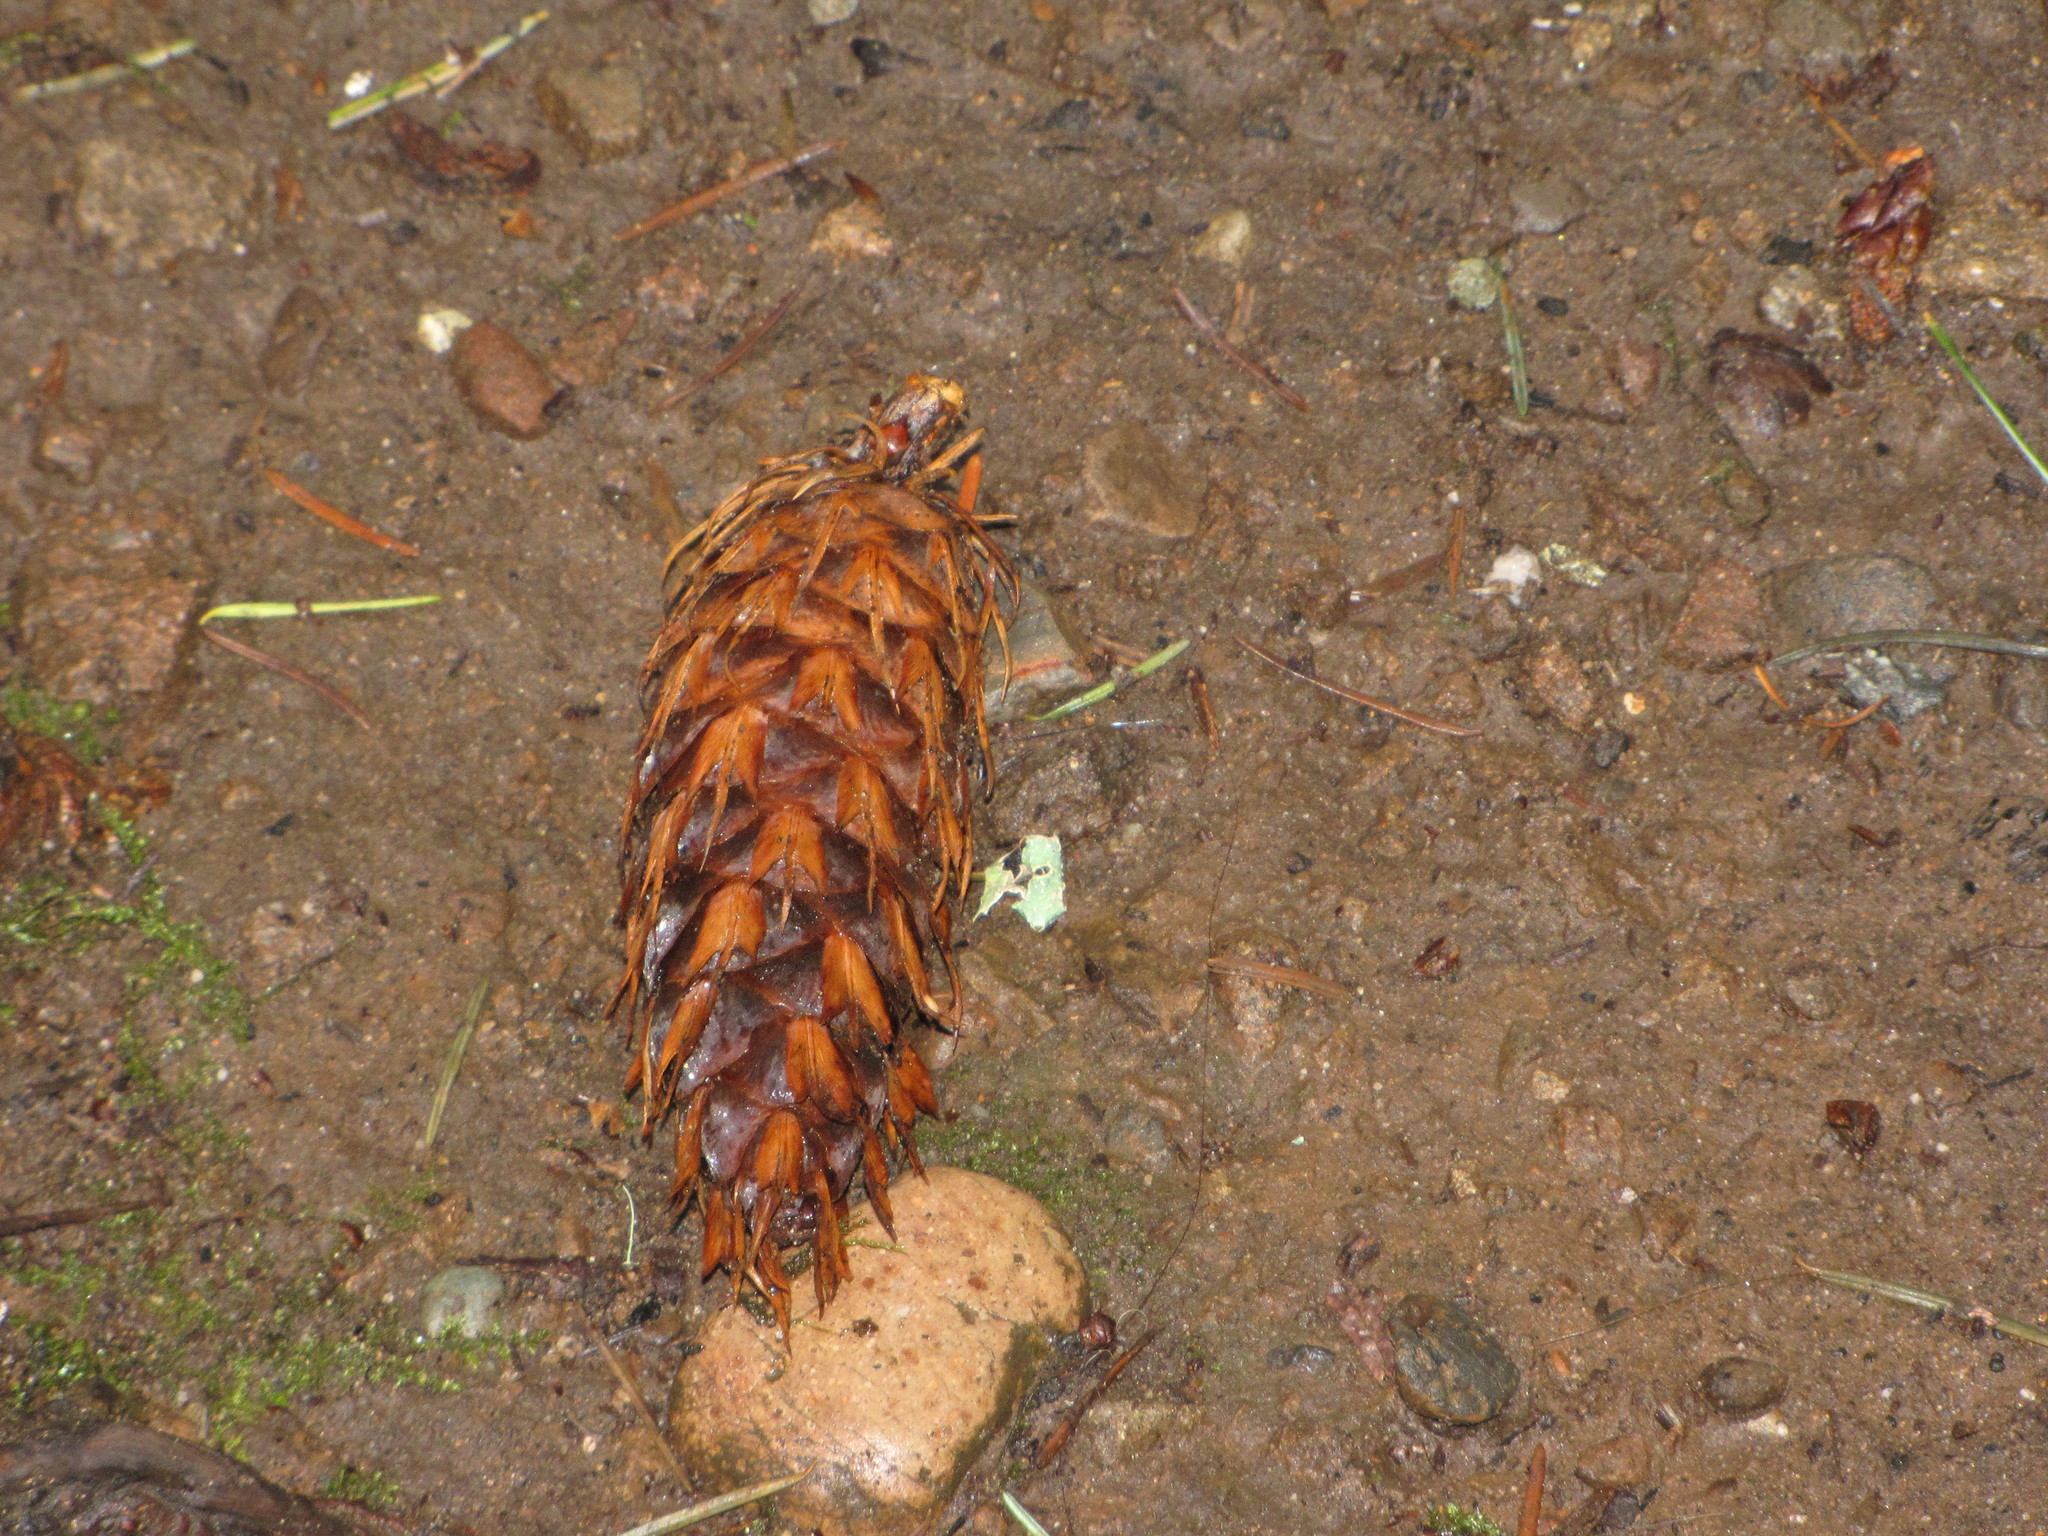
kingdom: Plantae
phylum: Tracheophyta
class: Pinopsida
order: Pinales
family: Pinaceae
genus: Pseudotsuga
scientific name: Pseudotsuga menziesii
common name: Douglas fir
